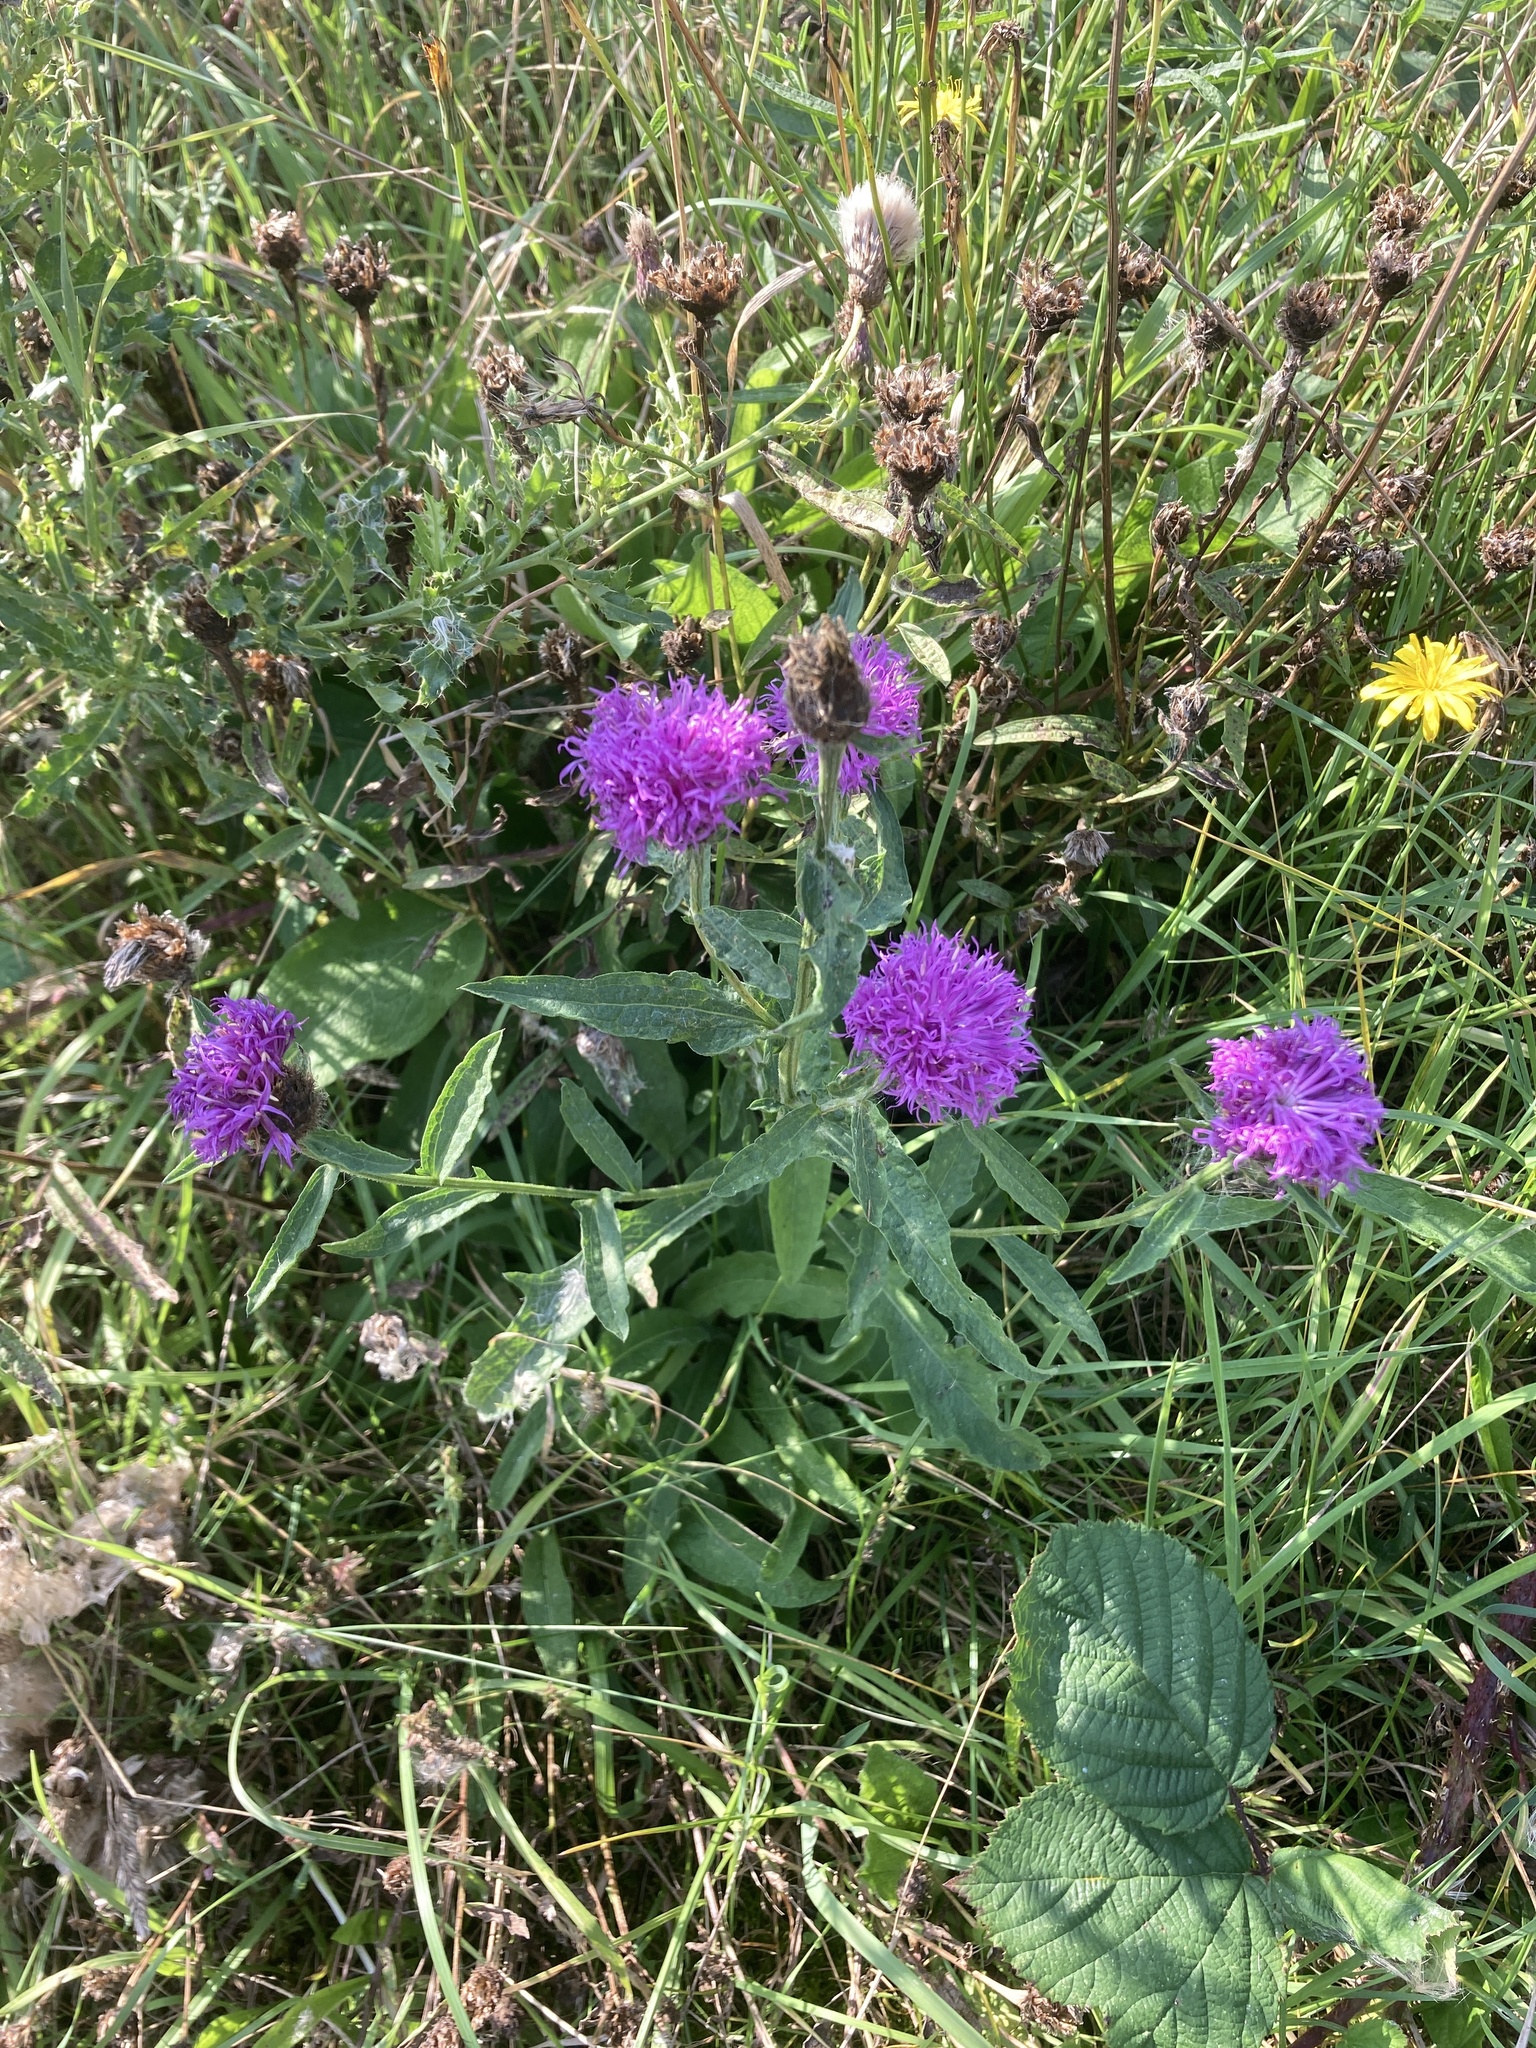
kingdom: Plantae
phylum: Tracheophyta
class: Magnoliopsida
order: Asterales
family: Asteraceae
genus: Centaurea
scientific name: Centaurea nigra
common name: Lesser knapweed
